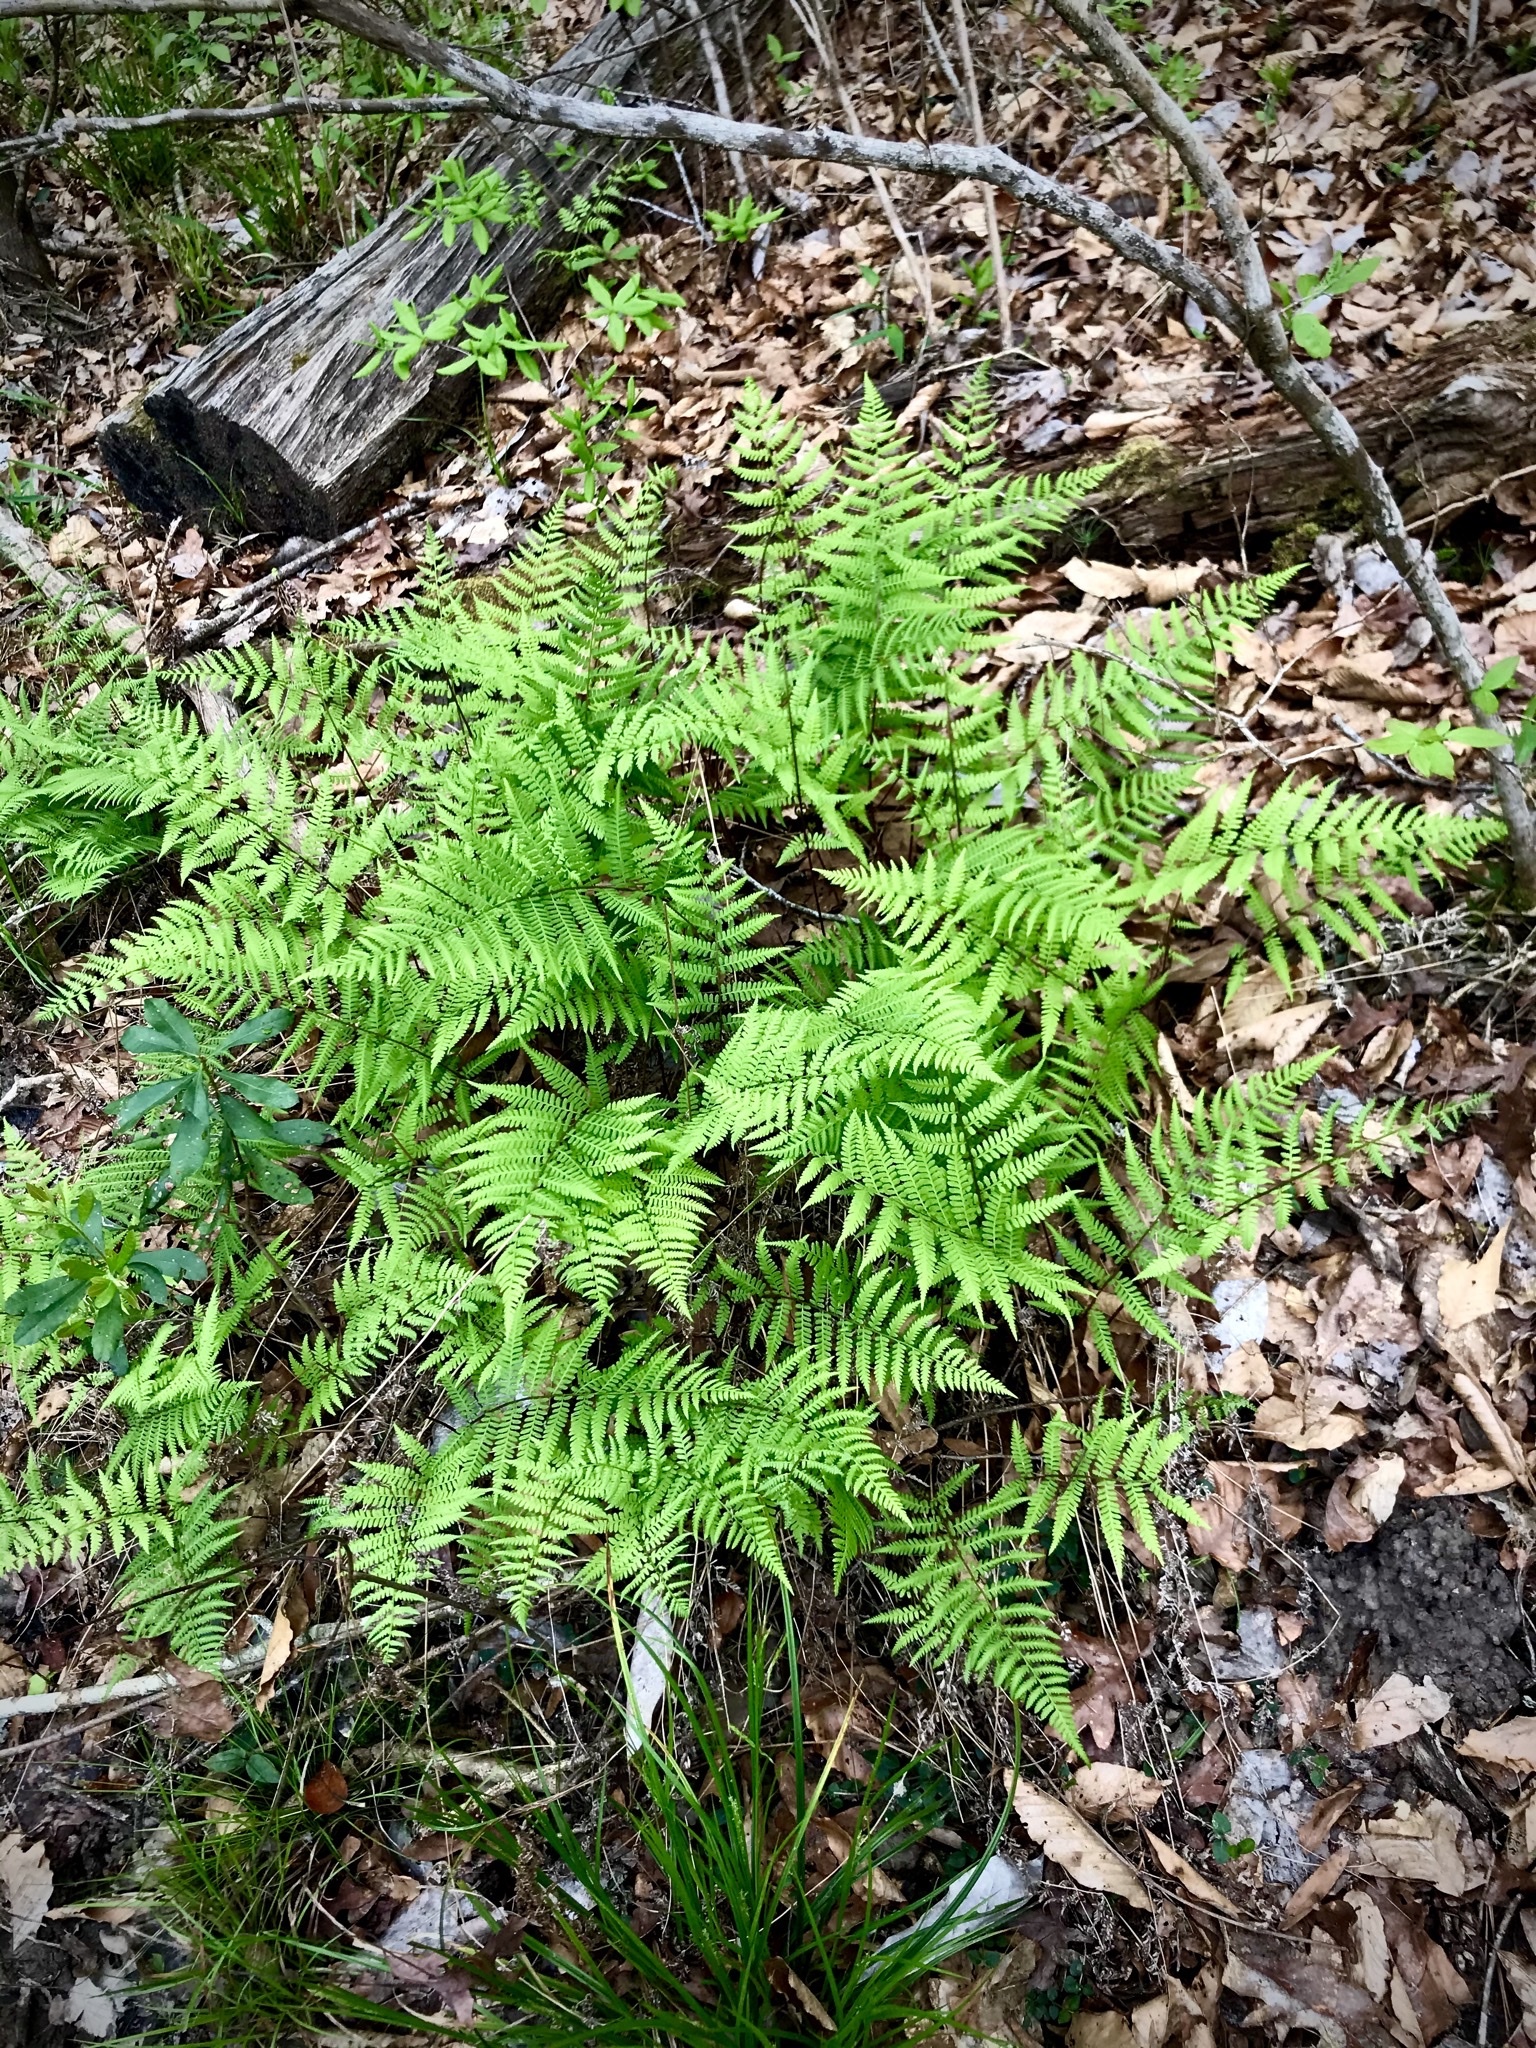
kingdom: Plantae
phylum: Tracheophyta
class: Polypodiopsida
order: Polypodiales
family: Thelypteridaceae
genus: Pelazoneuron
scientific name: Pelazoneuron kunthii
